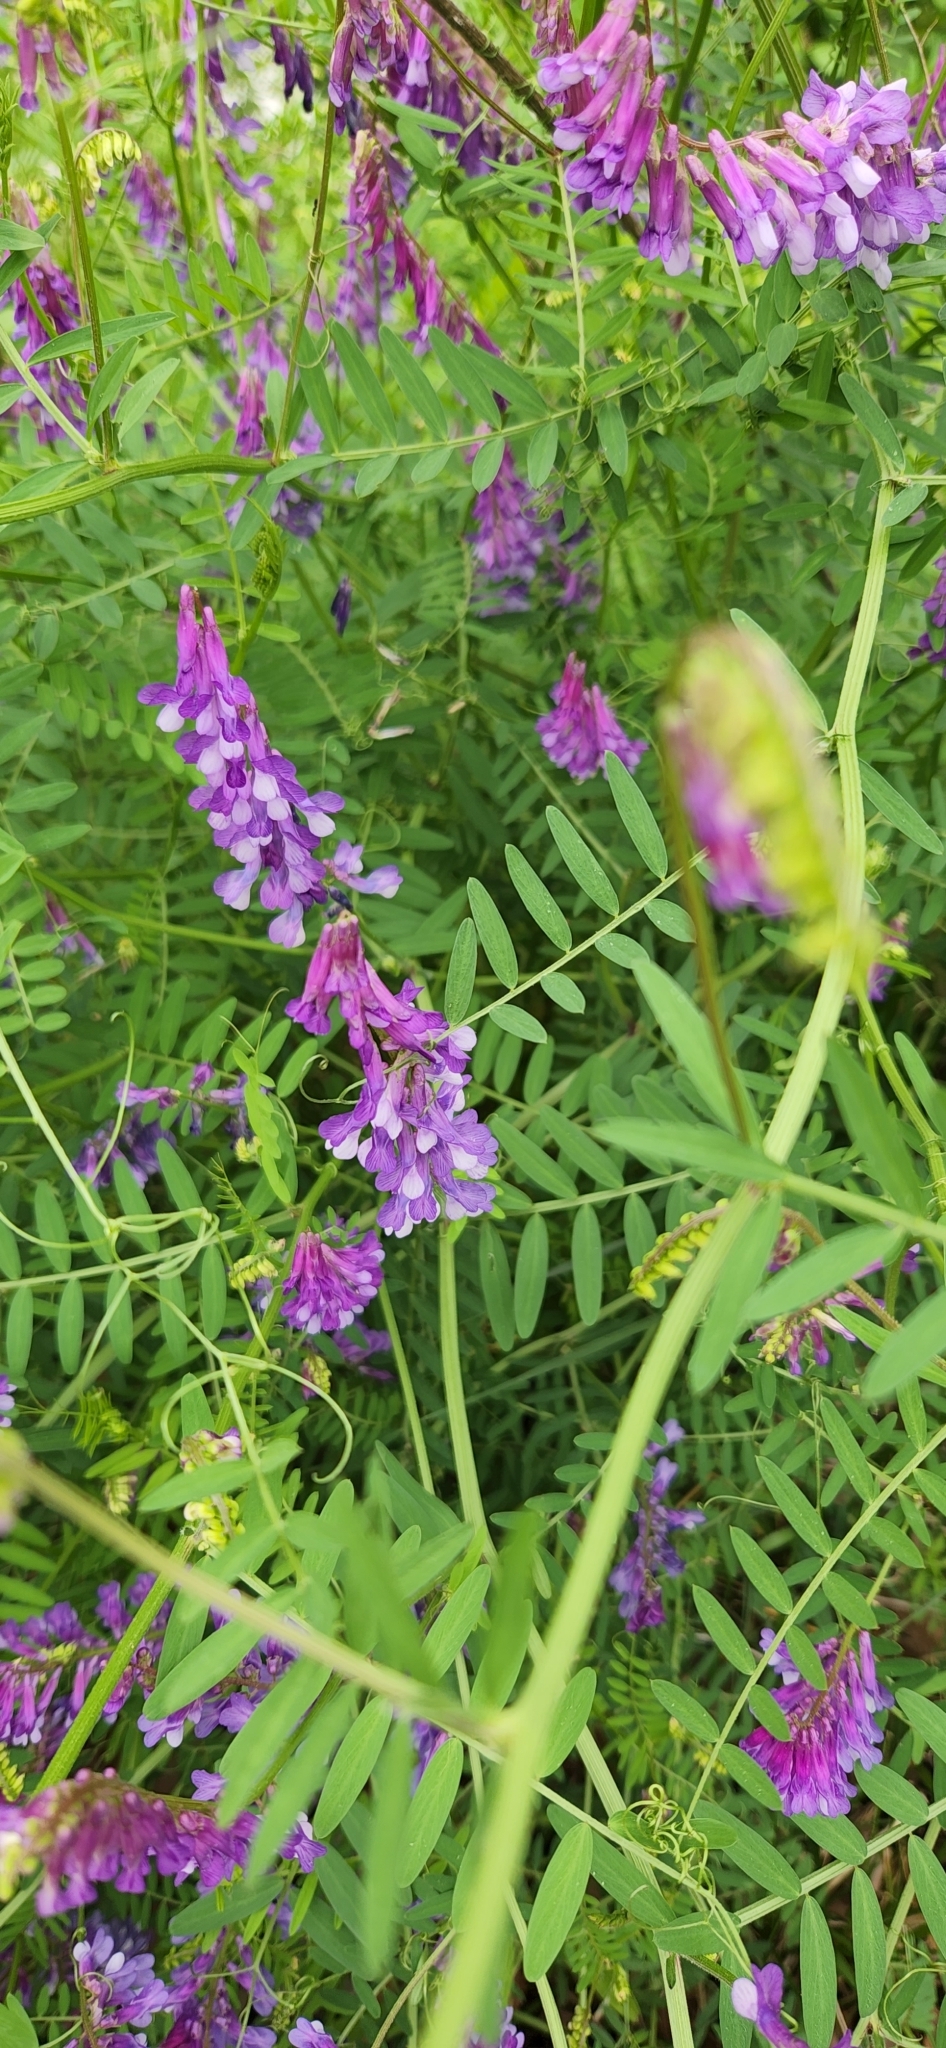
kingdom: Plantae
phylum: Tracheophyta
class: Magnoliopsida
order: Fabales
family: Fabaceae
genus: Vicia
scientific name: Vicia villosa
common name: Fodder vetch
